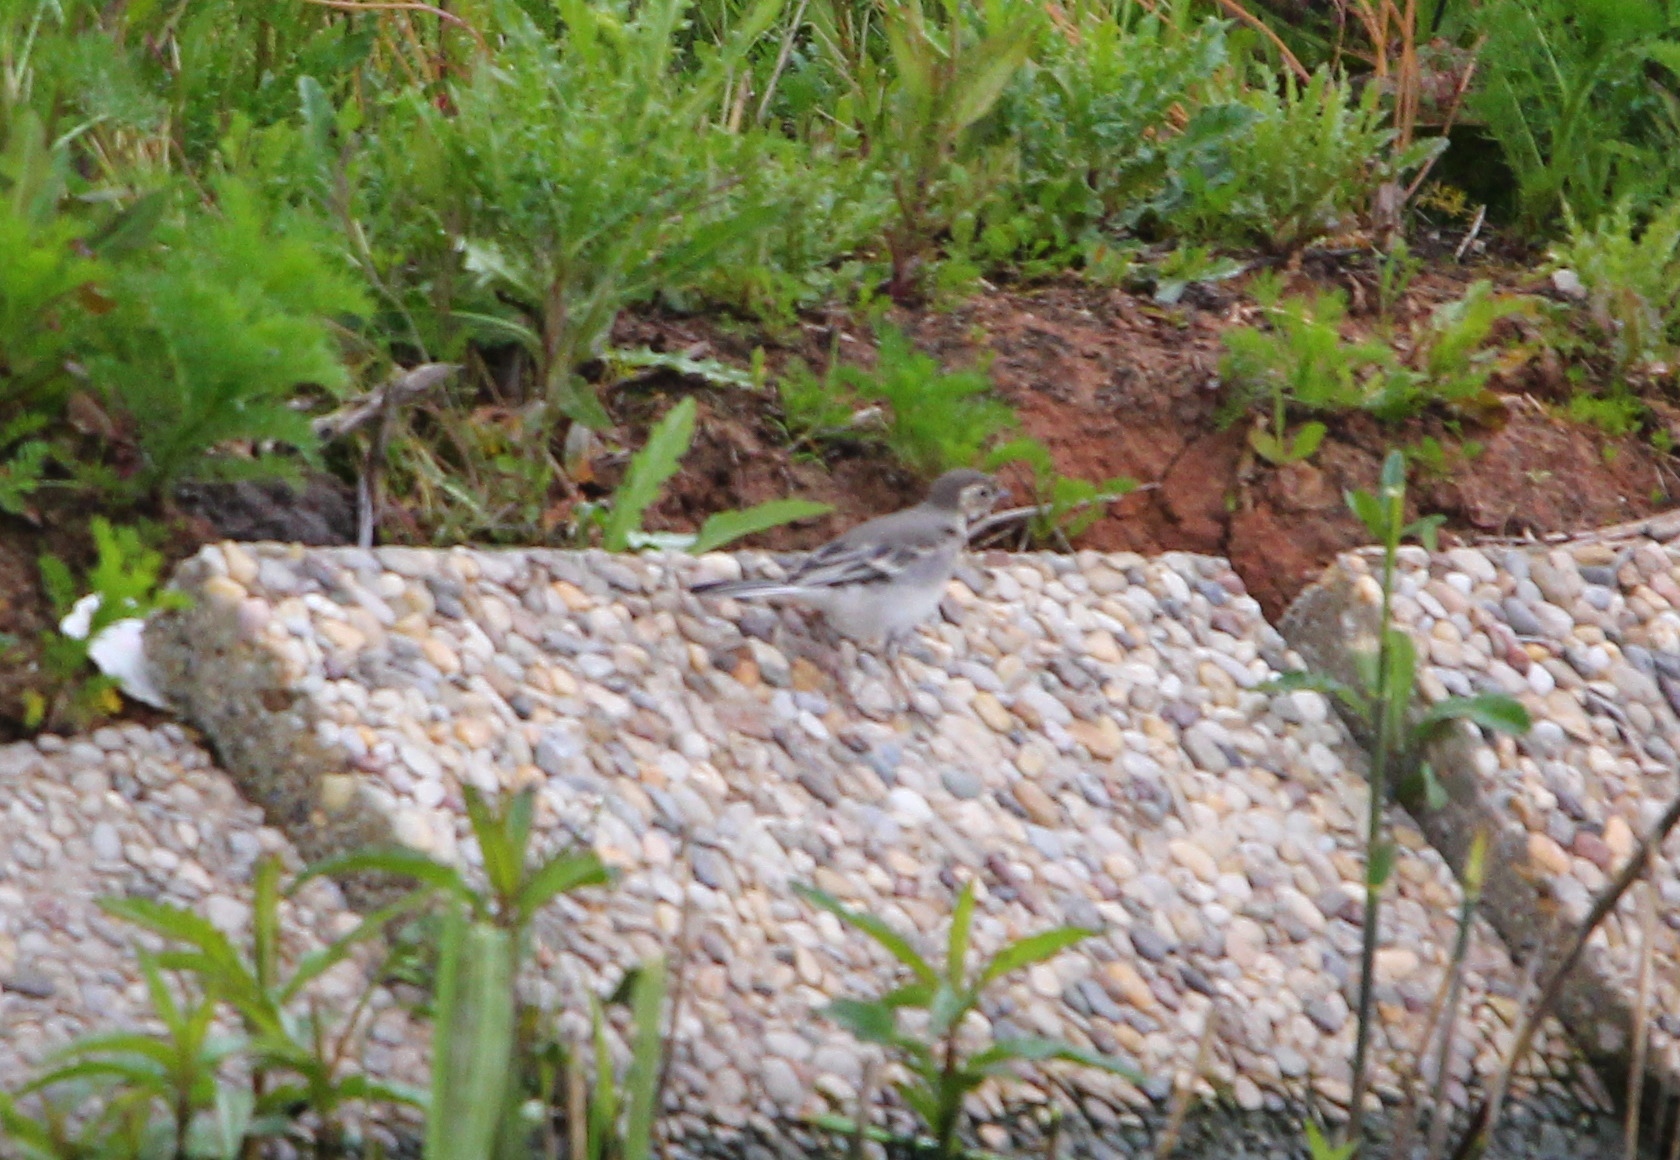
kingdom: Animalia
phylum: Chordata
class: Aves
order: Passeriformes
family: Motacillidae
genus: Motacilla
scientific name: Motacilla alba
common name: White wagtail
